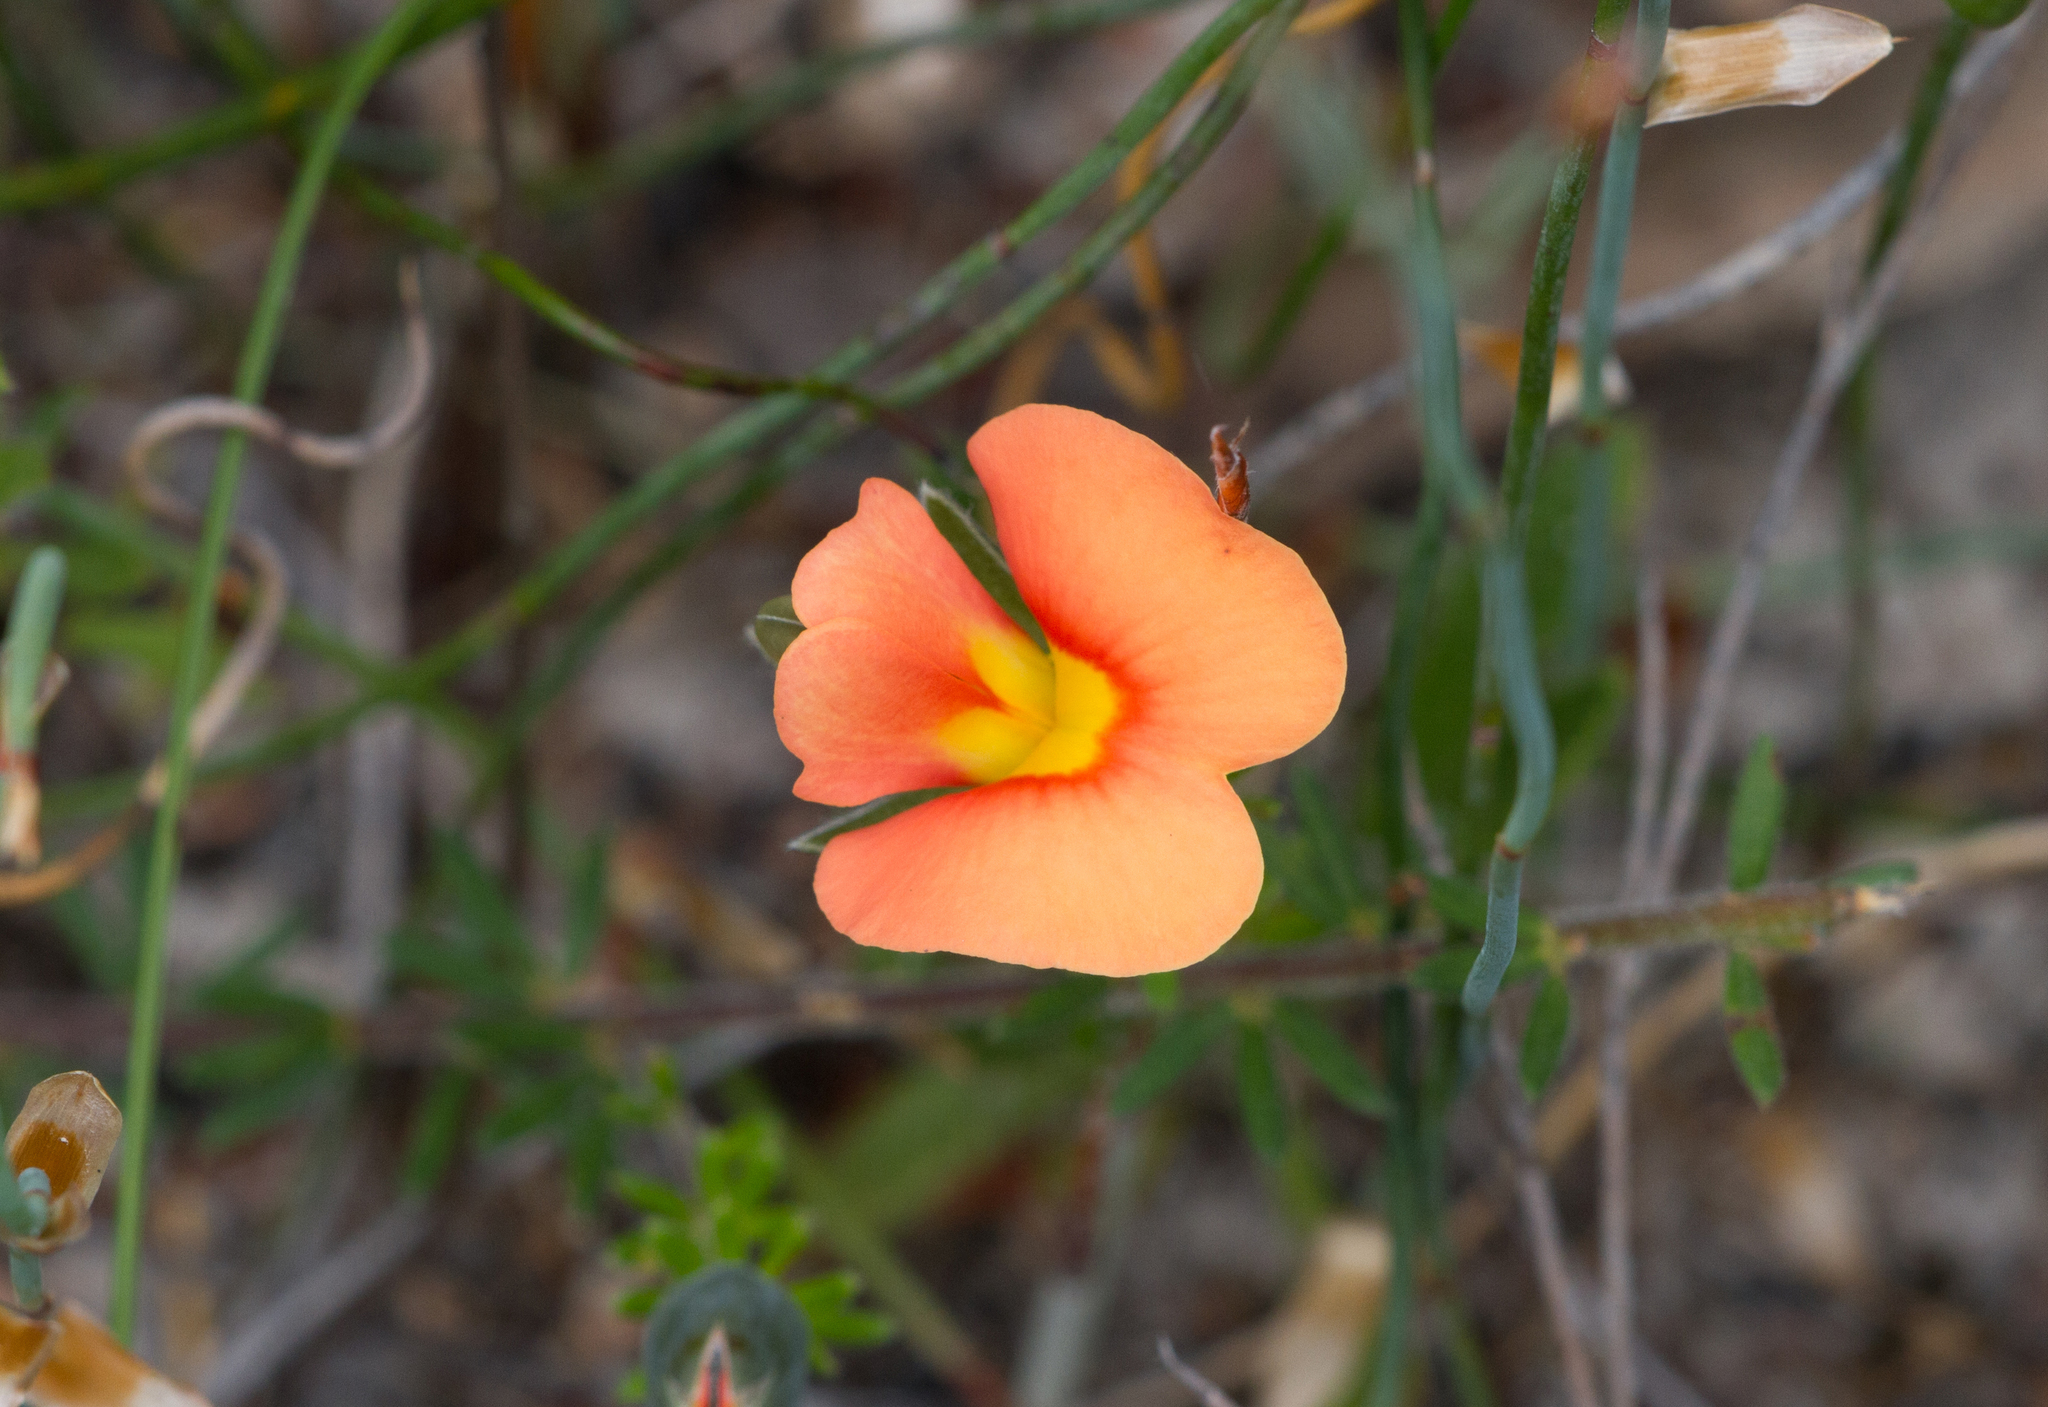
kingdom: Plantae
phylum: Tracheophyta
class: Magnoliopsida
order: Fabales
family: Fabaceae
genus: Gompholobium
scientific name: Gompholobium ecostatum
